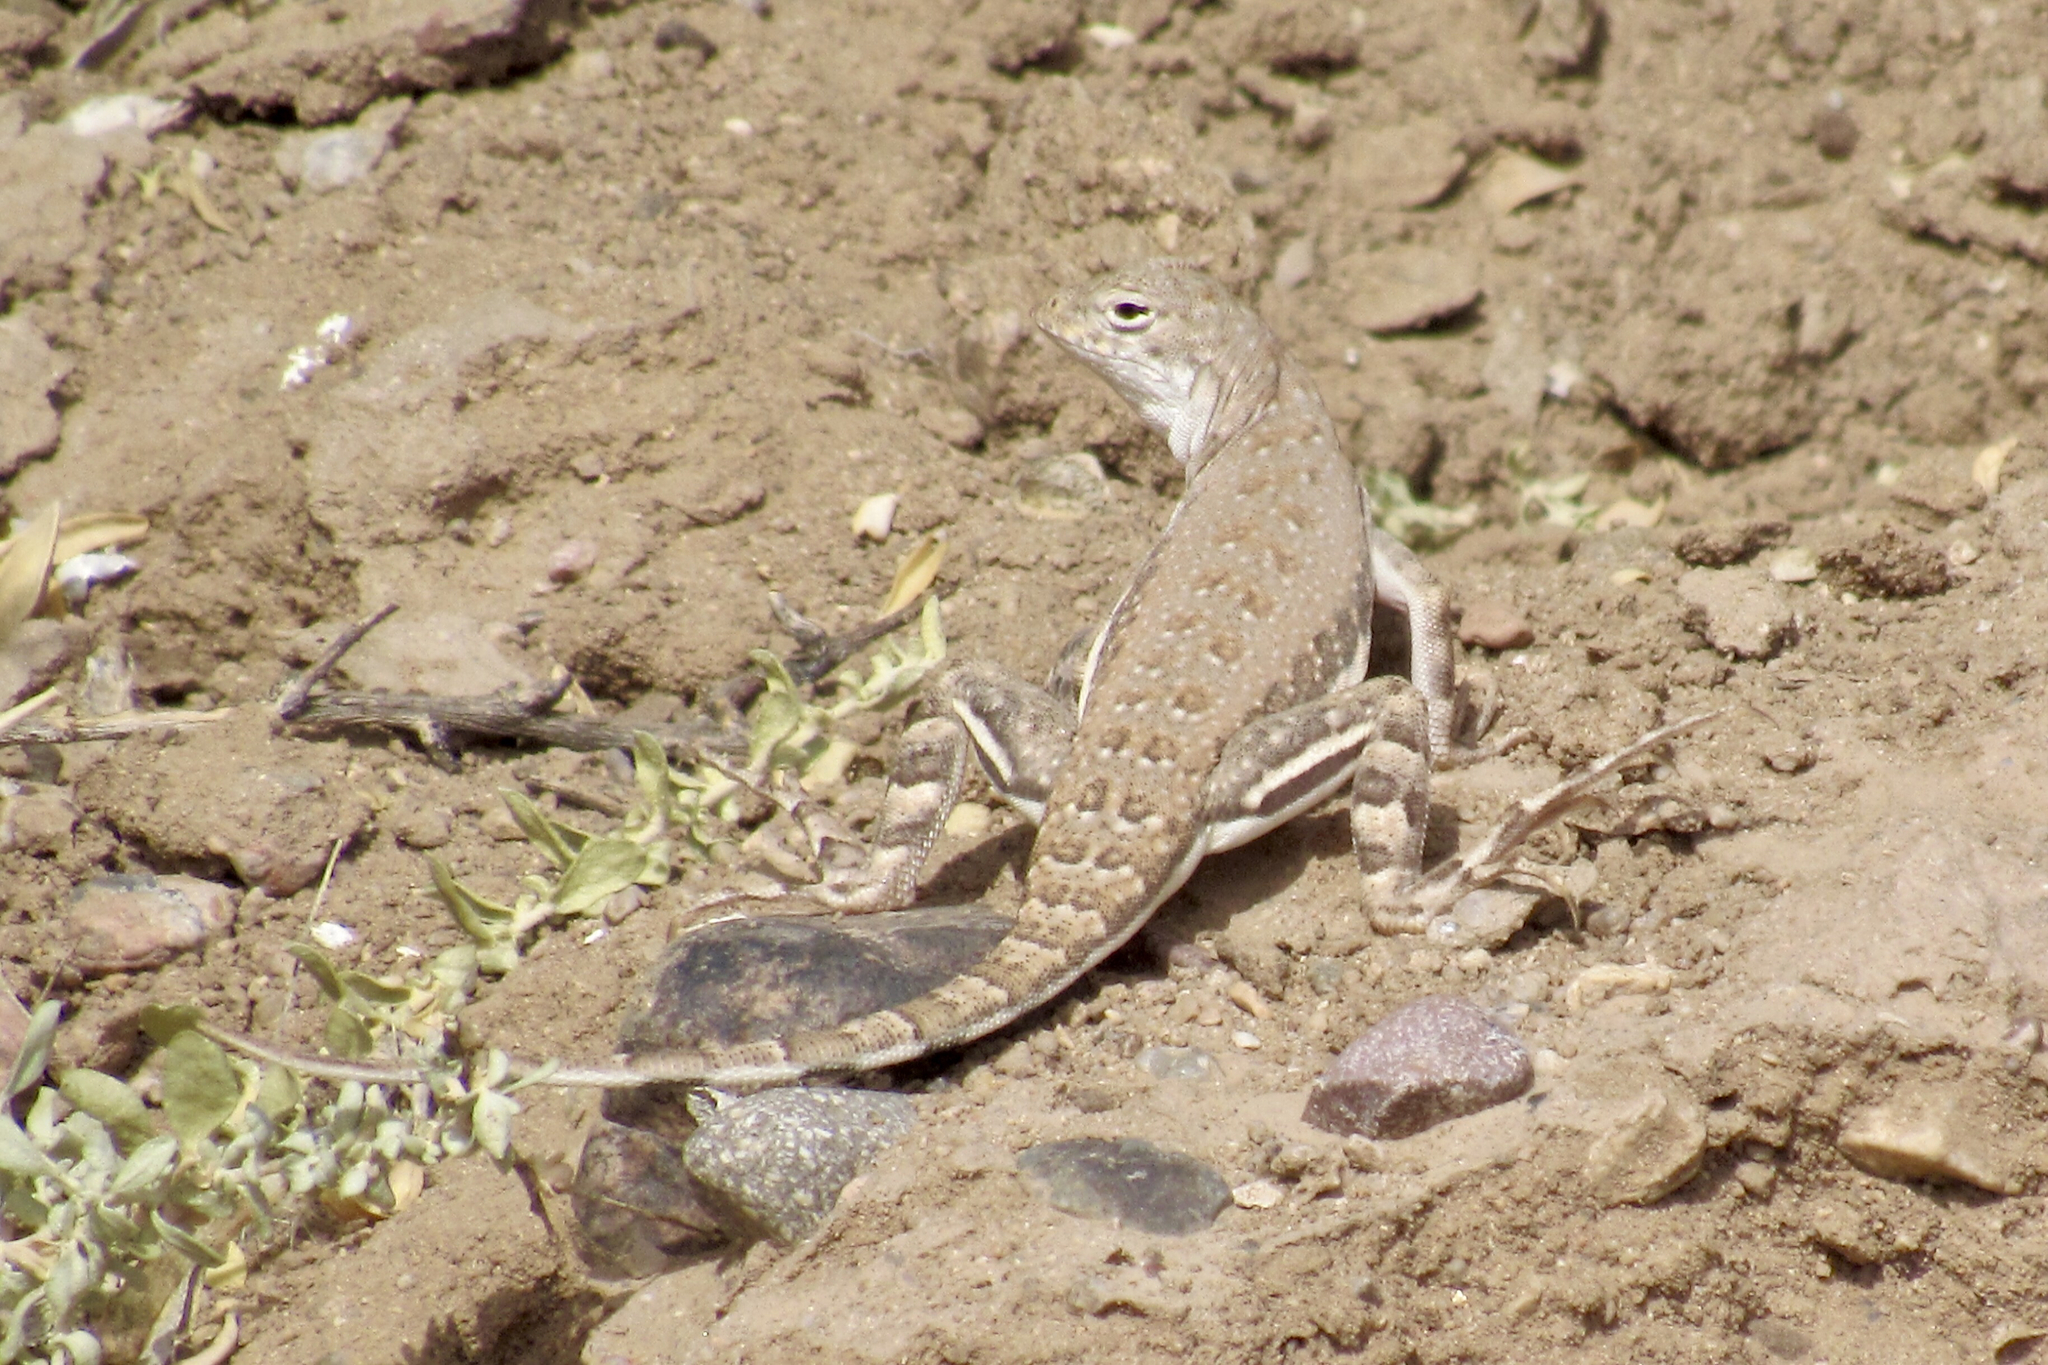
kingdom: Animalia
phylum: Chordata
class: Squamata
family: Phrynosomatidae
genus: Callisaurus
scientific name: Callisaurus draconoides
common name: Zebra-tailed lizard
